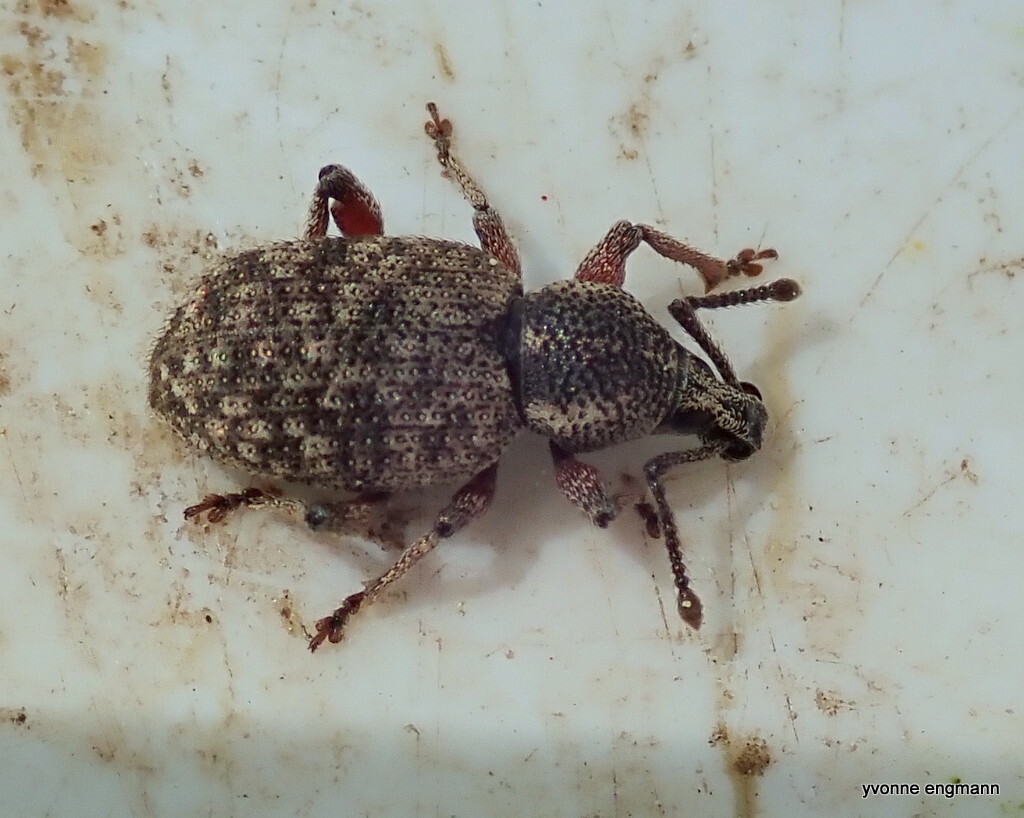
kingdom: Animalia
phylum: Arthropoda
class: Insecta
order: Coleoptera
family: Curculionidae
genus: Otiorhynchus
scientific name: Otiorhynchus singularis
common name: Clay-coloured weevil
